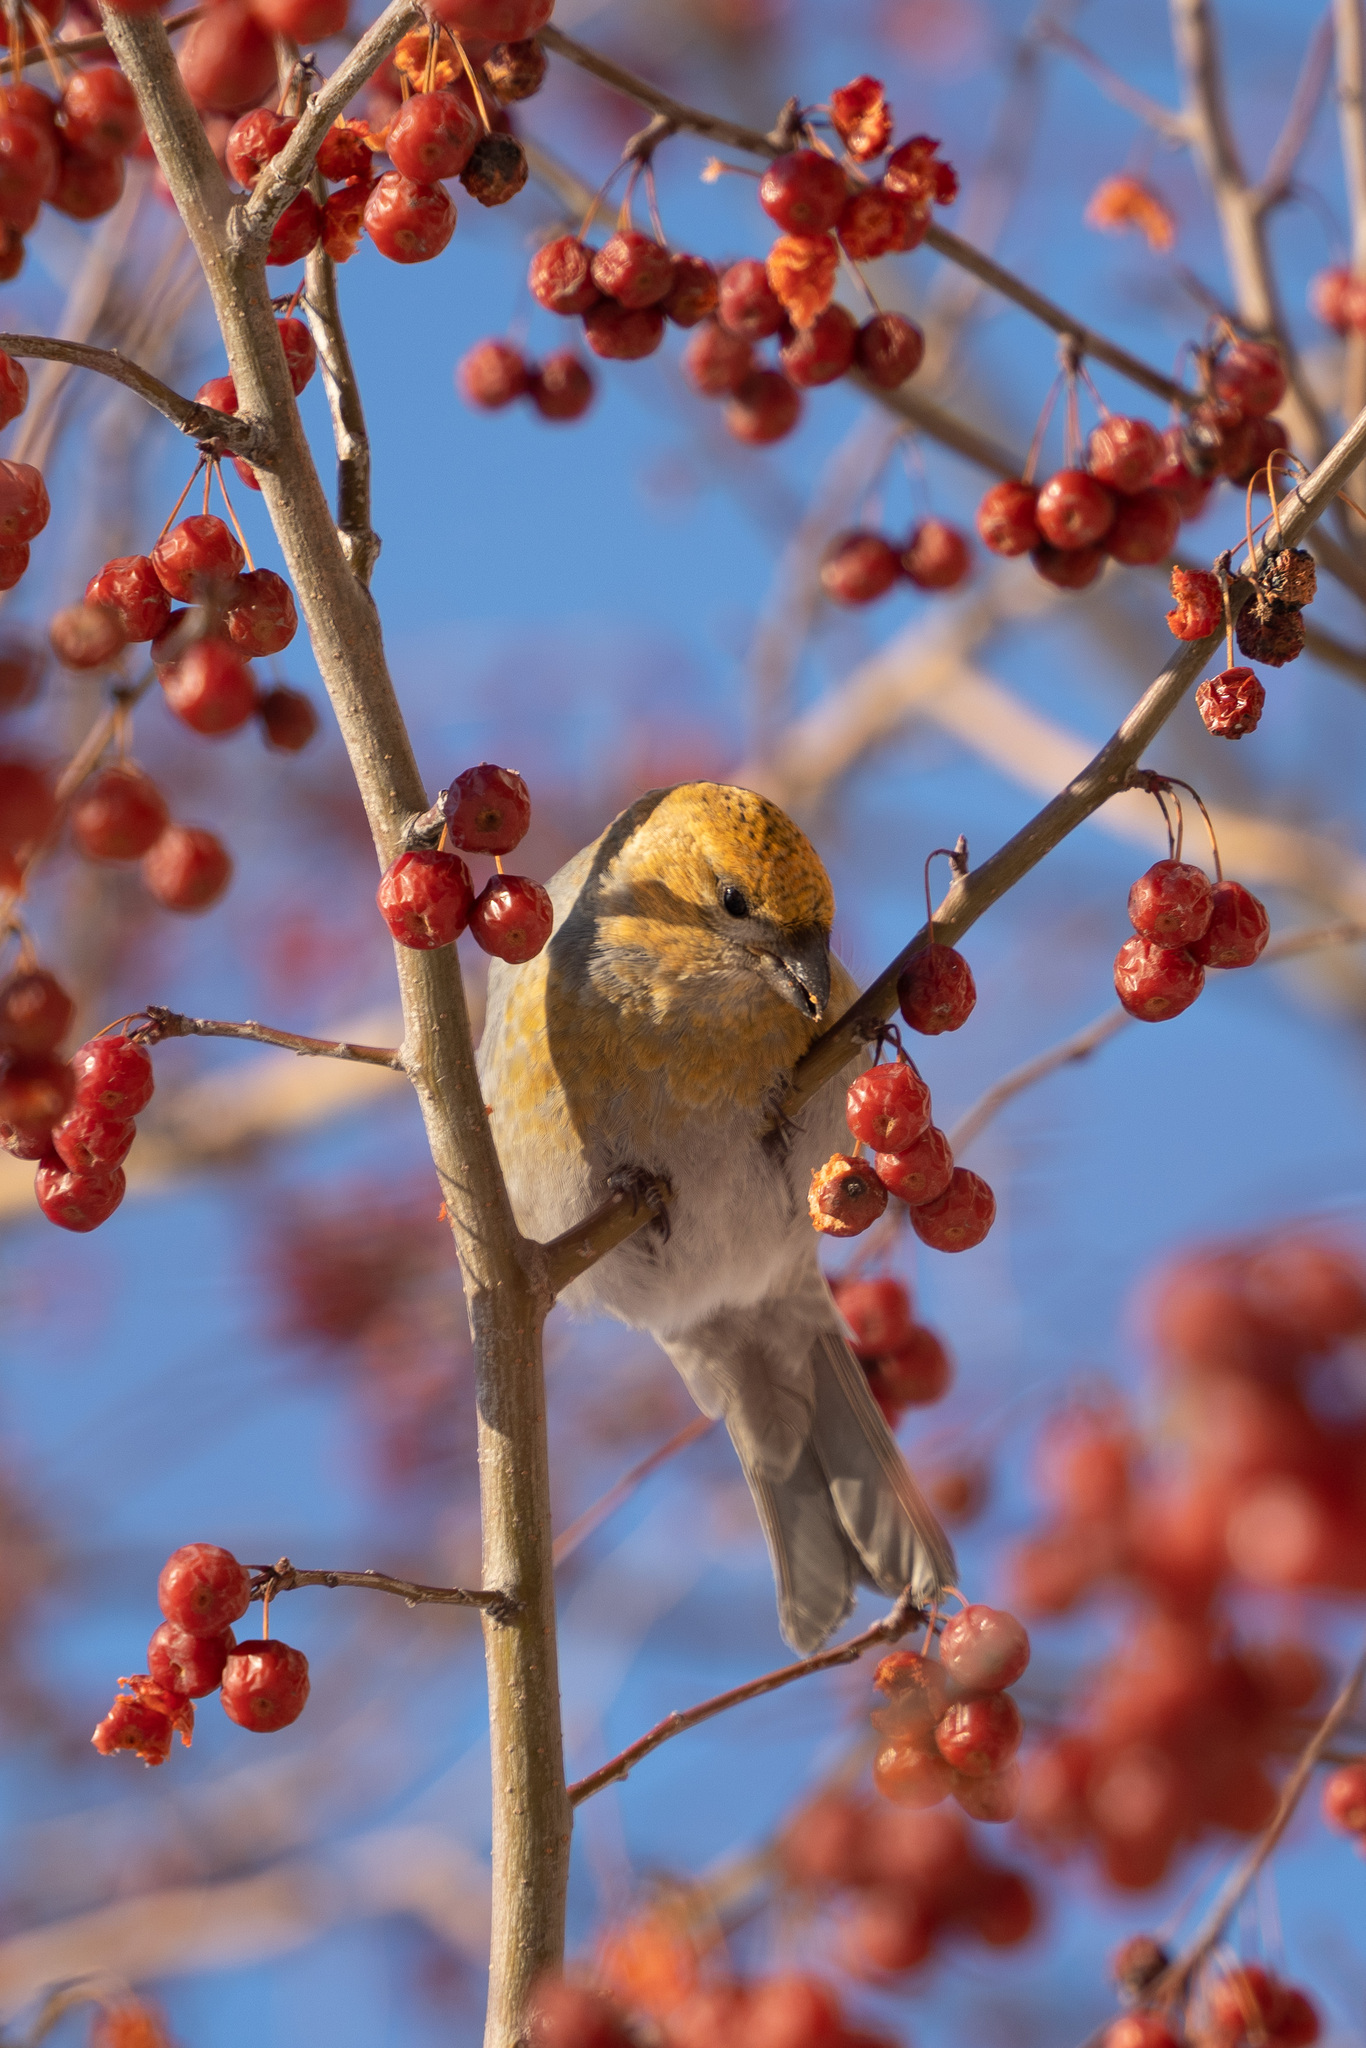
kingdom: Animalia
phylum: Chordata
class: Aves
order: Passeriformes
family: Fringillidae
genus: Pinicola
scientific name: Pinicola enucleator
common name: Pine grosbeak
